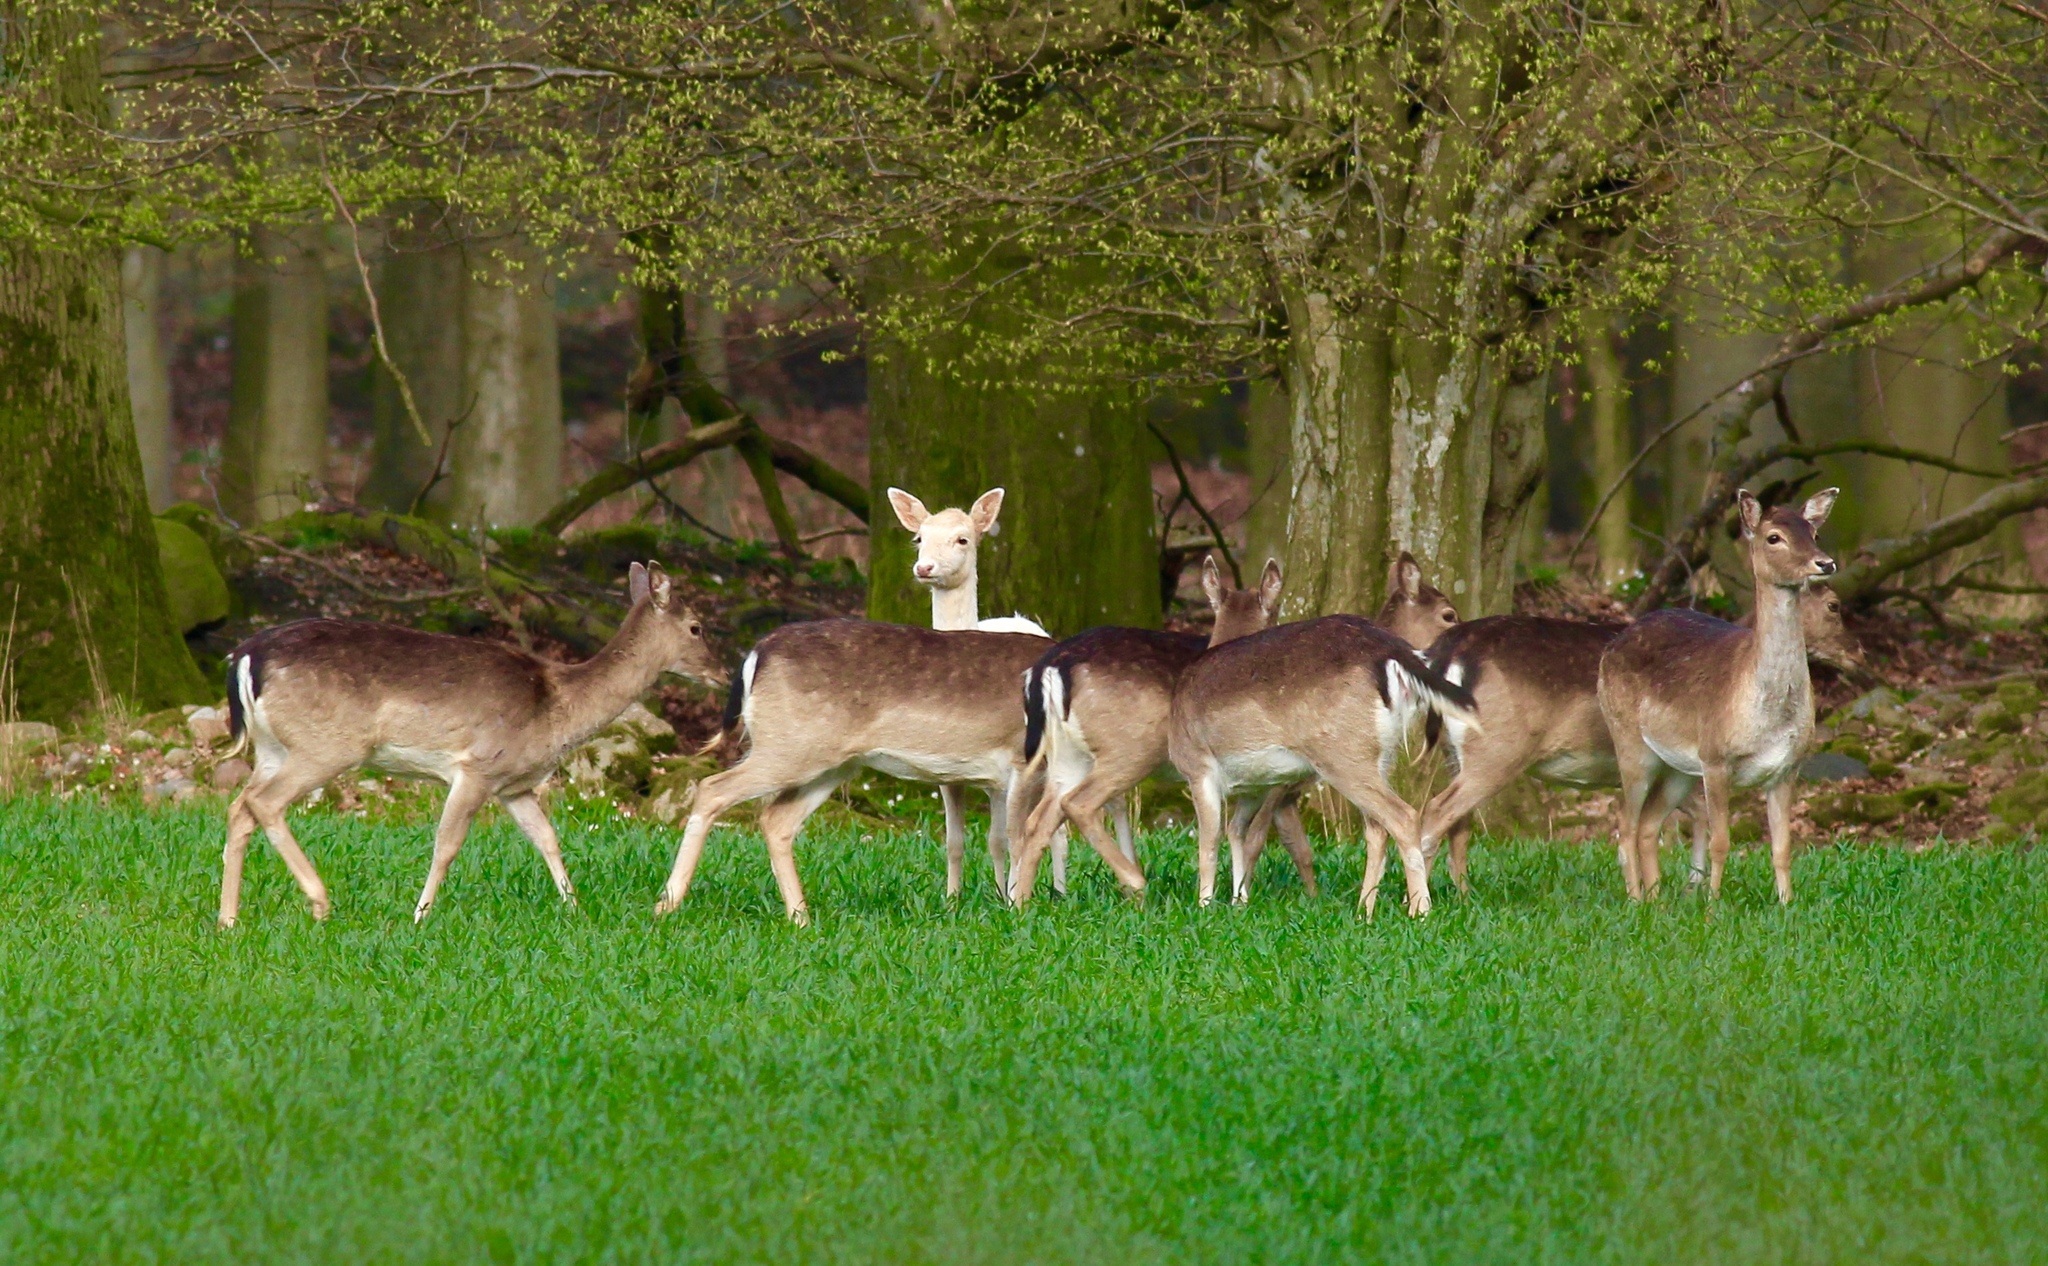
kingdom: Animalia
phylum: Chordata
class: Mammalia
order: Artiodactyla
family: Cervidae
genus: Dama
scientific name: Dama dama
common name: Fallow deer
